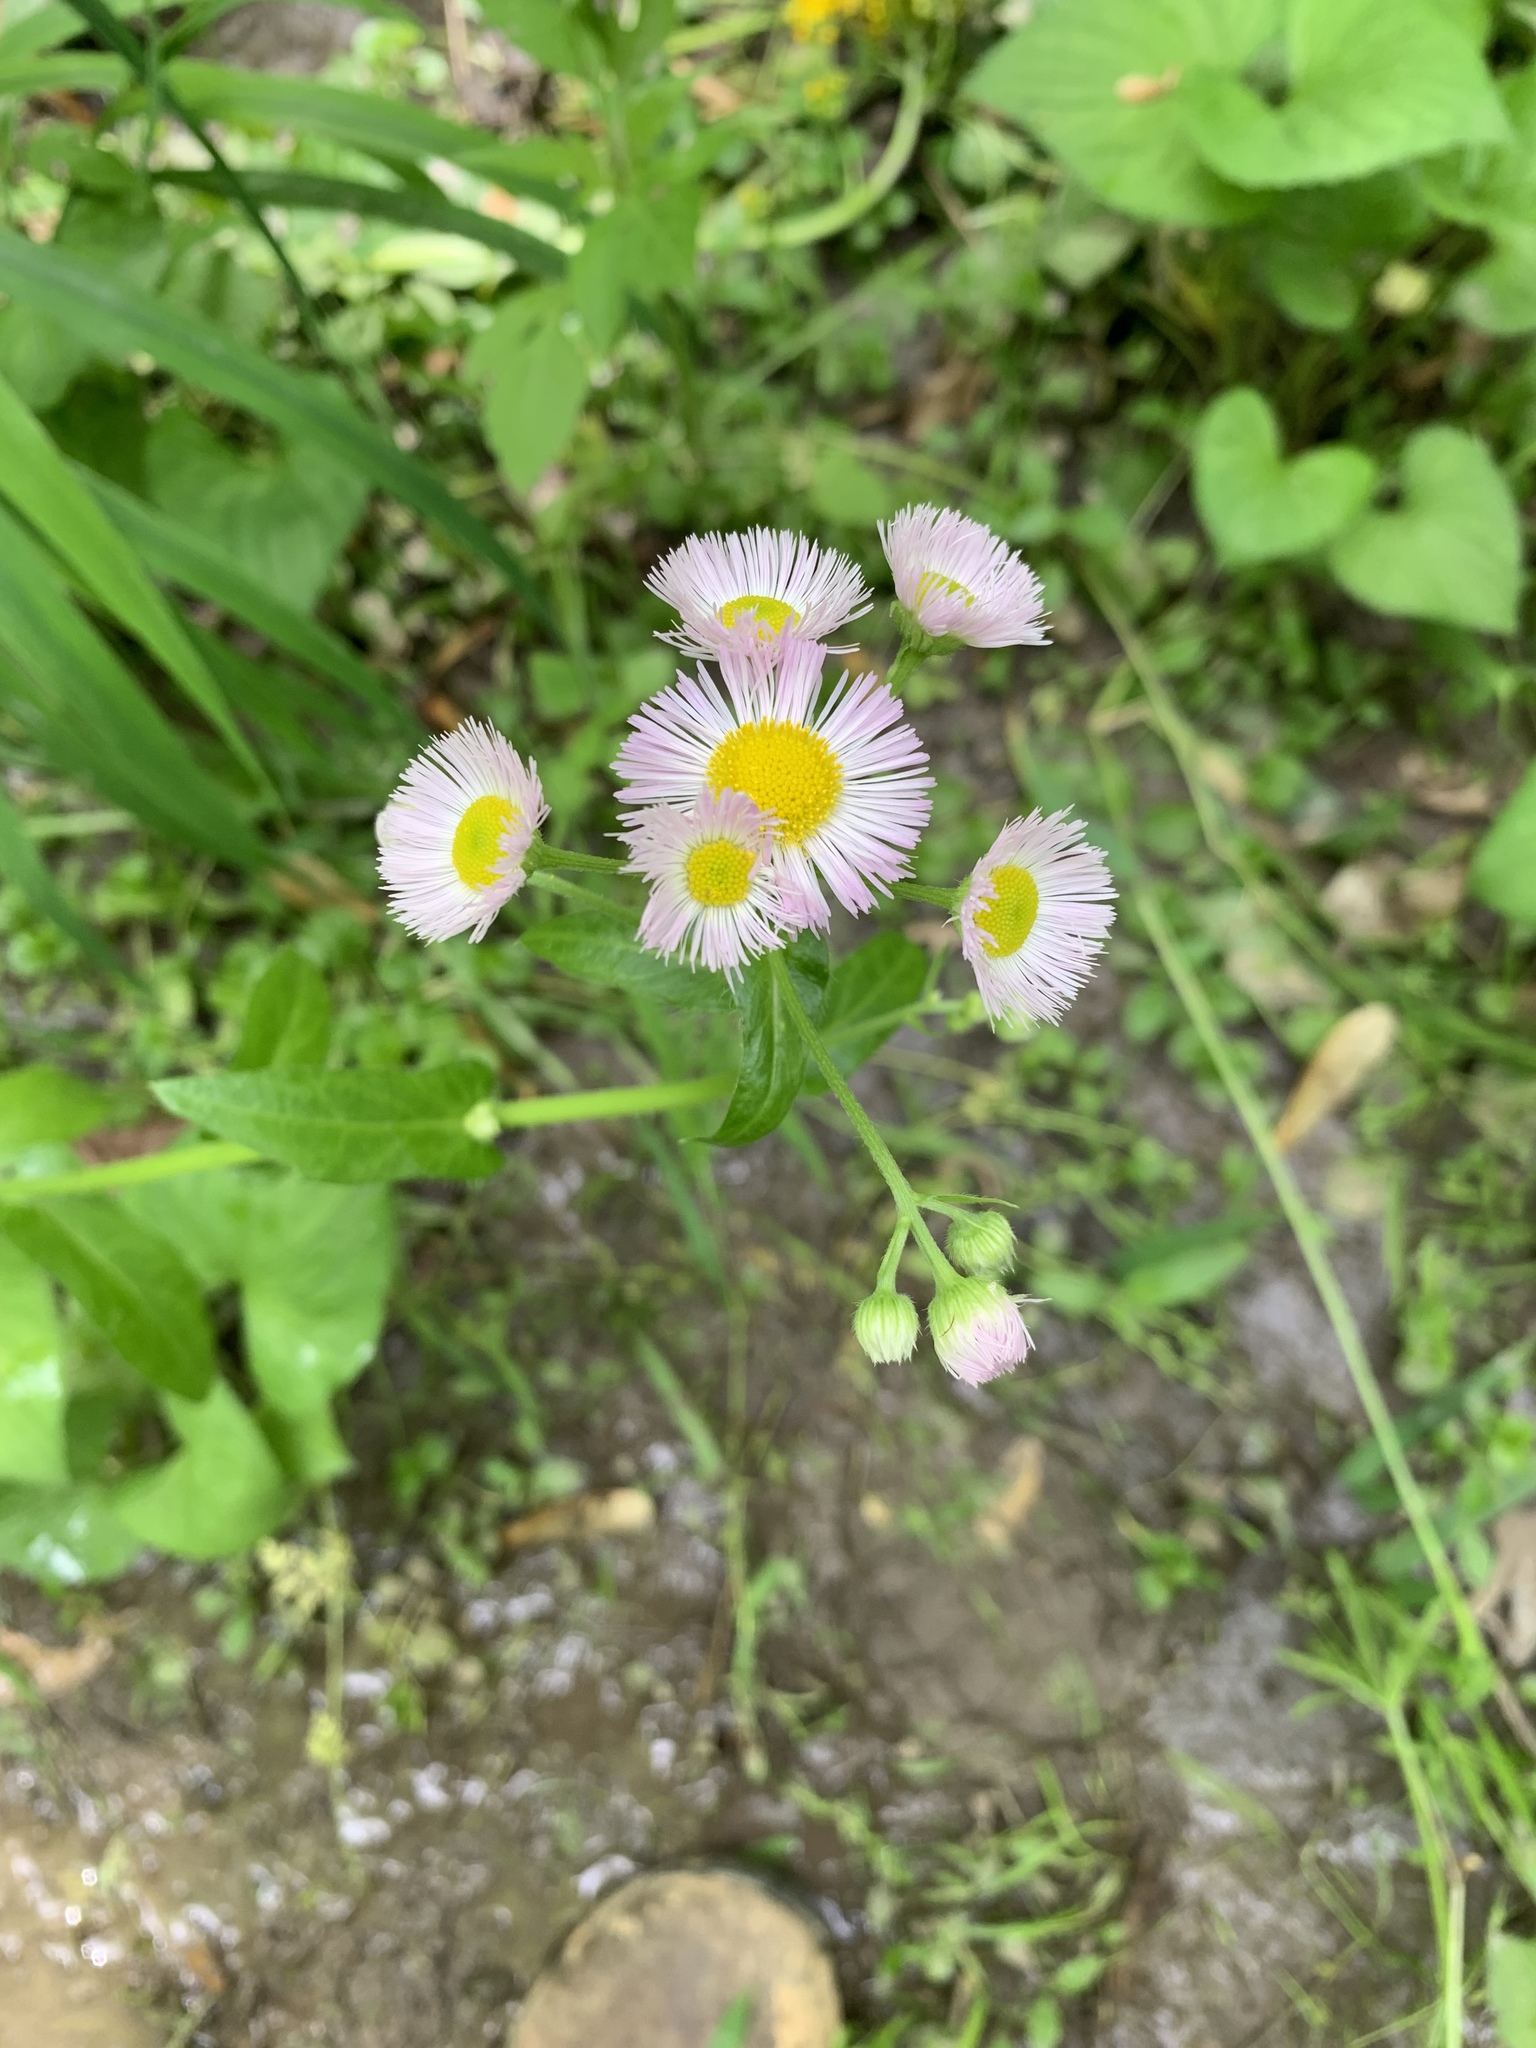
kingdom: Plantae
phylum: Tracheophyta
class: Magnoliopsida
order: Asterales
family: Asteraceae
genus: Erigeron
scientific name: Erigeron philadelphicus
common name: Robin's-plantain
